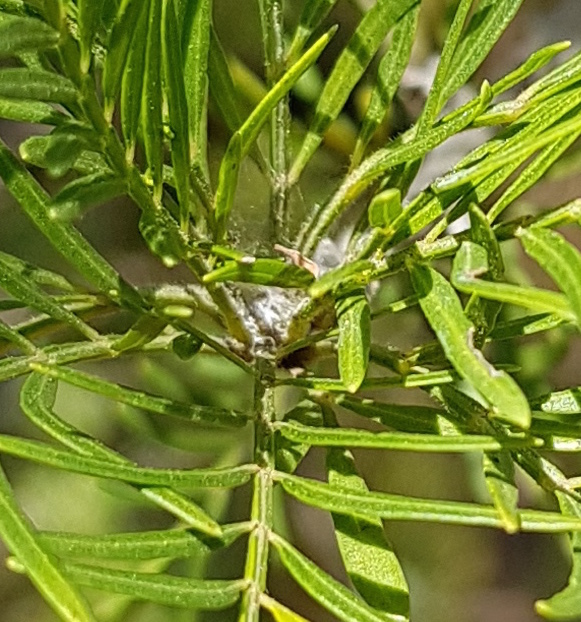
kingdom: Plantae
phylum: Tracheophyta
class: Magnoliopsida
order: Sapindales
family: Burseraceae
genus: Bursera
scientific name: Bursera galeottiana
